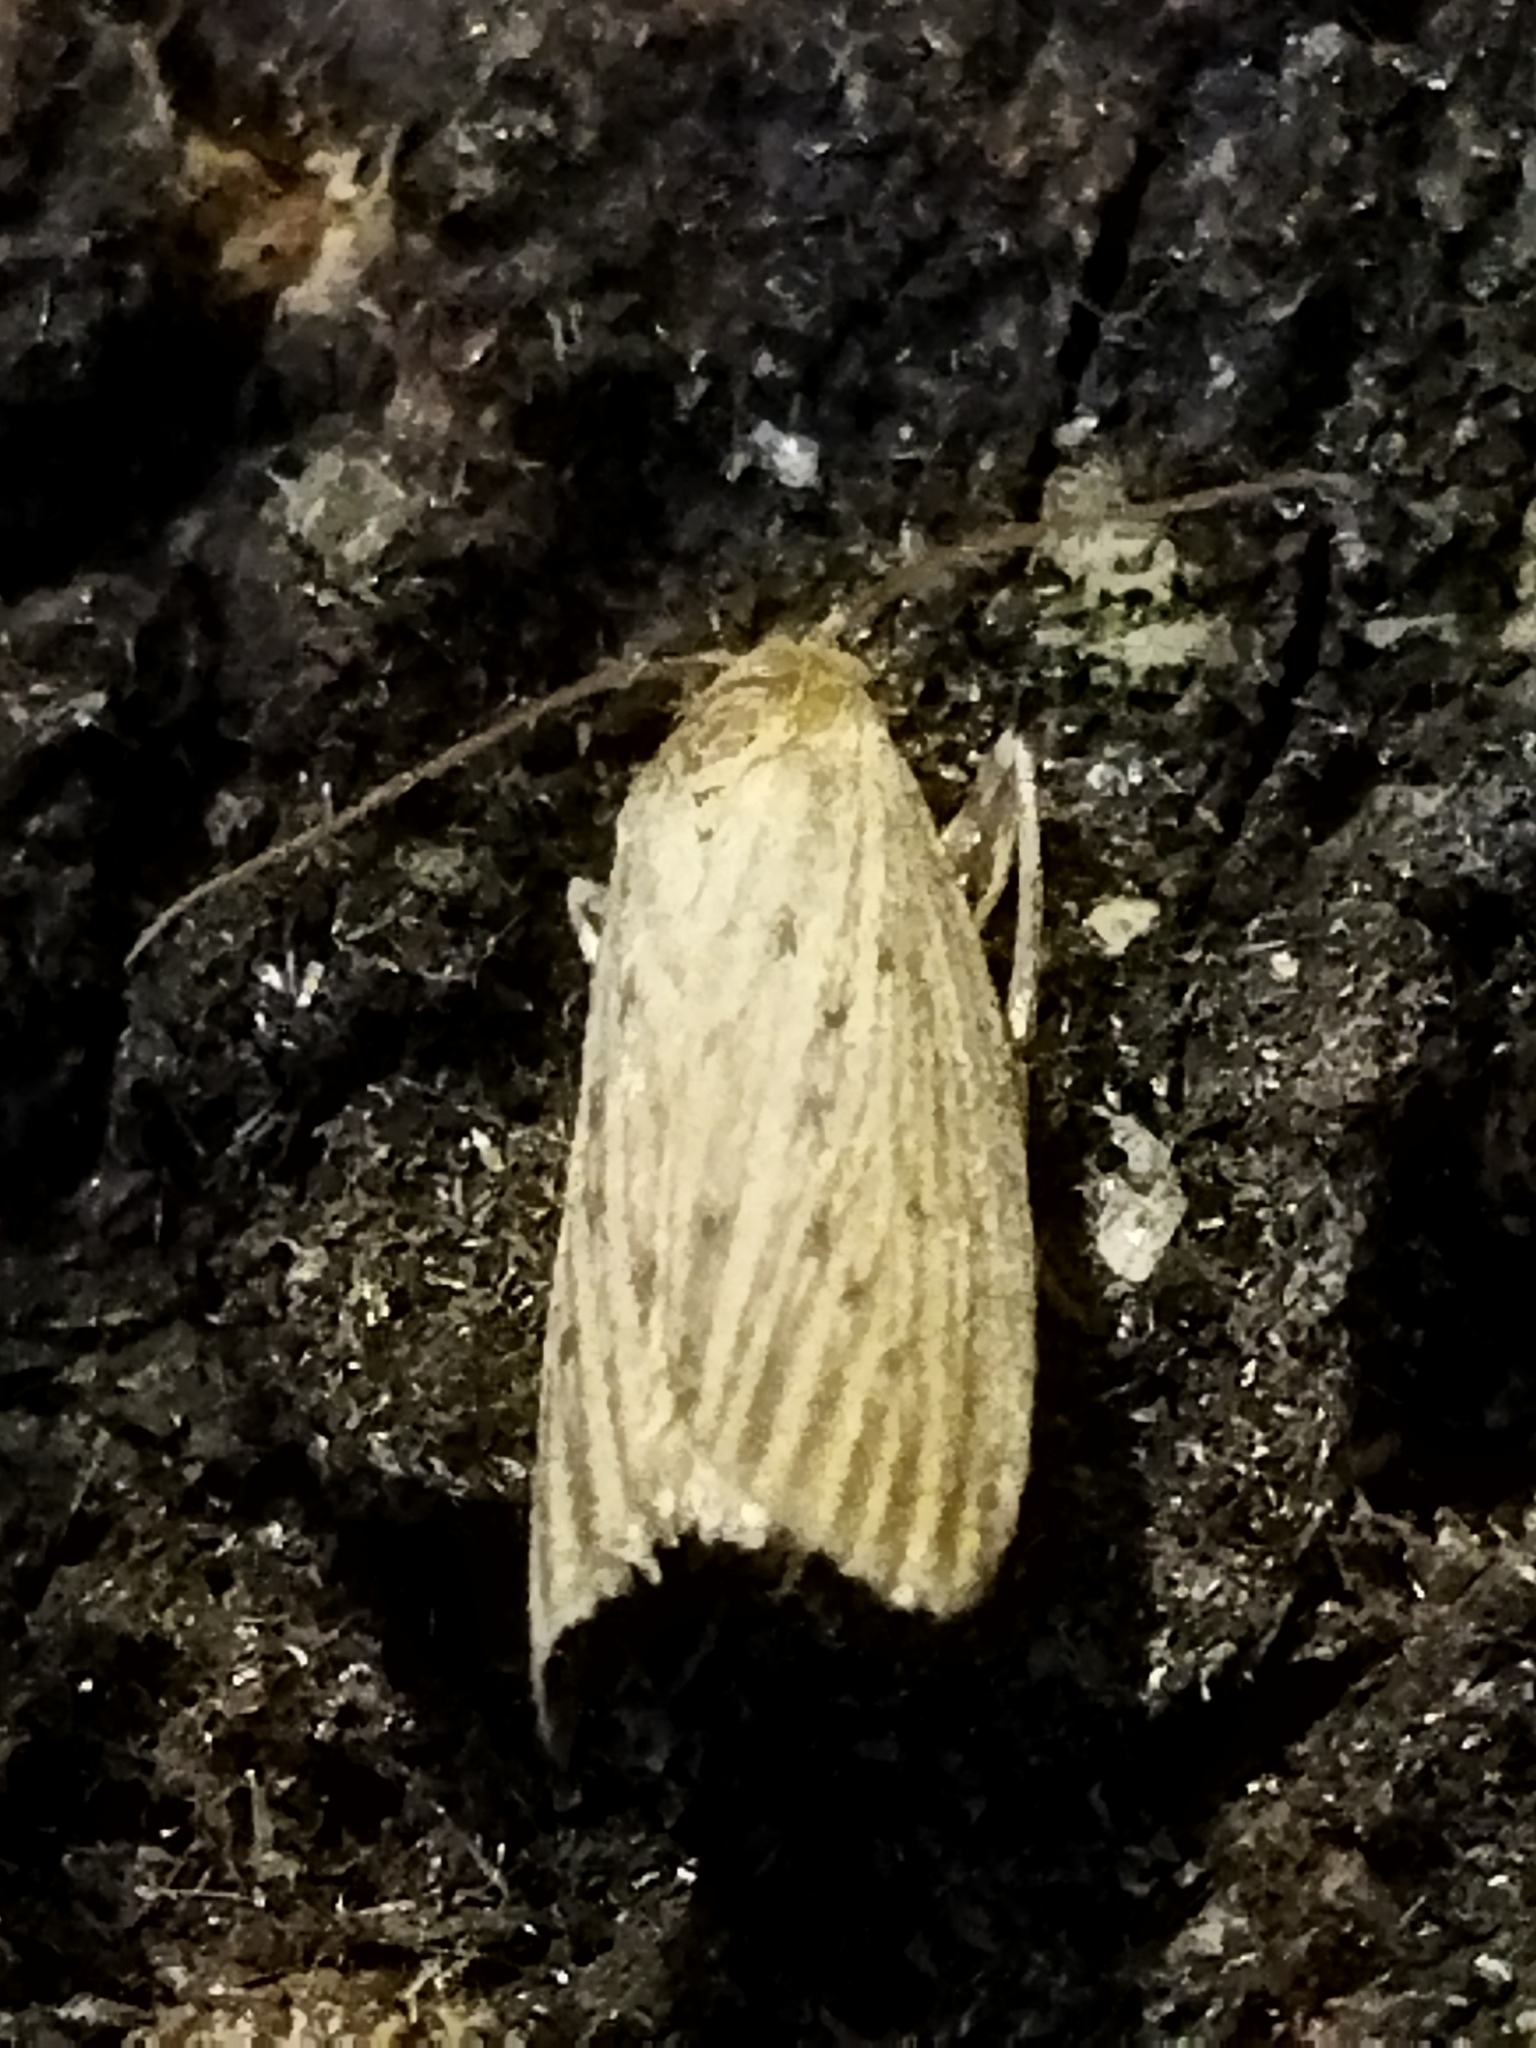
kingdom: Animalia
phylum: Arthropoda
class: Insecta
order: Lepidoptera
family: Pyralidae
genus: Ematheudes
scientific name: Ematheudes punctellus
